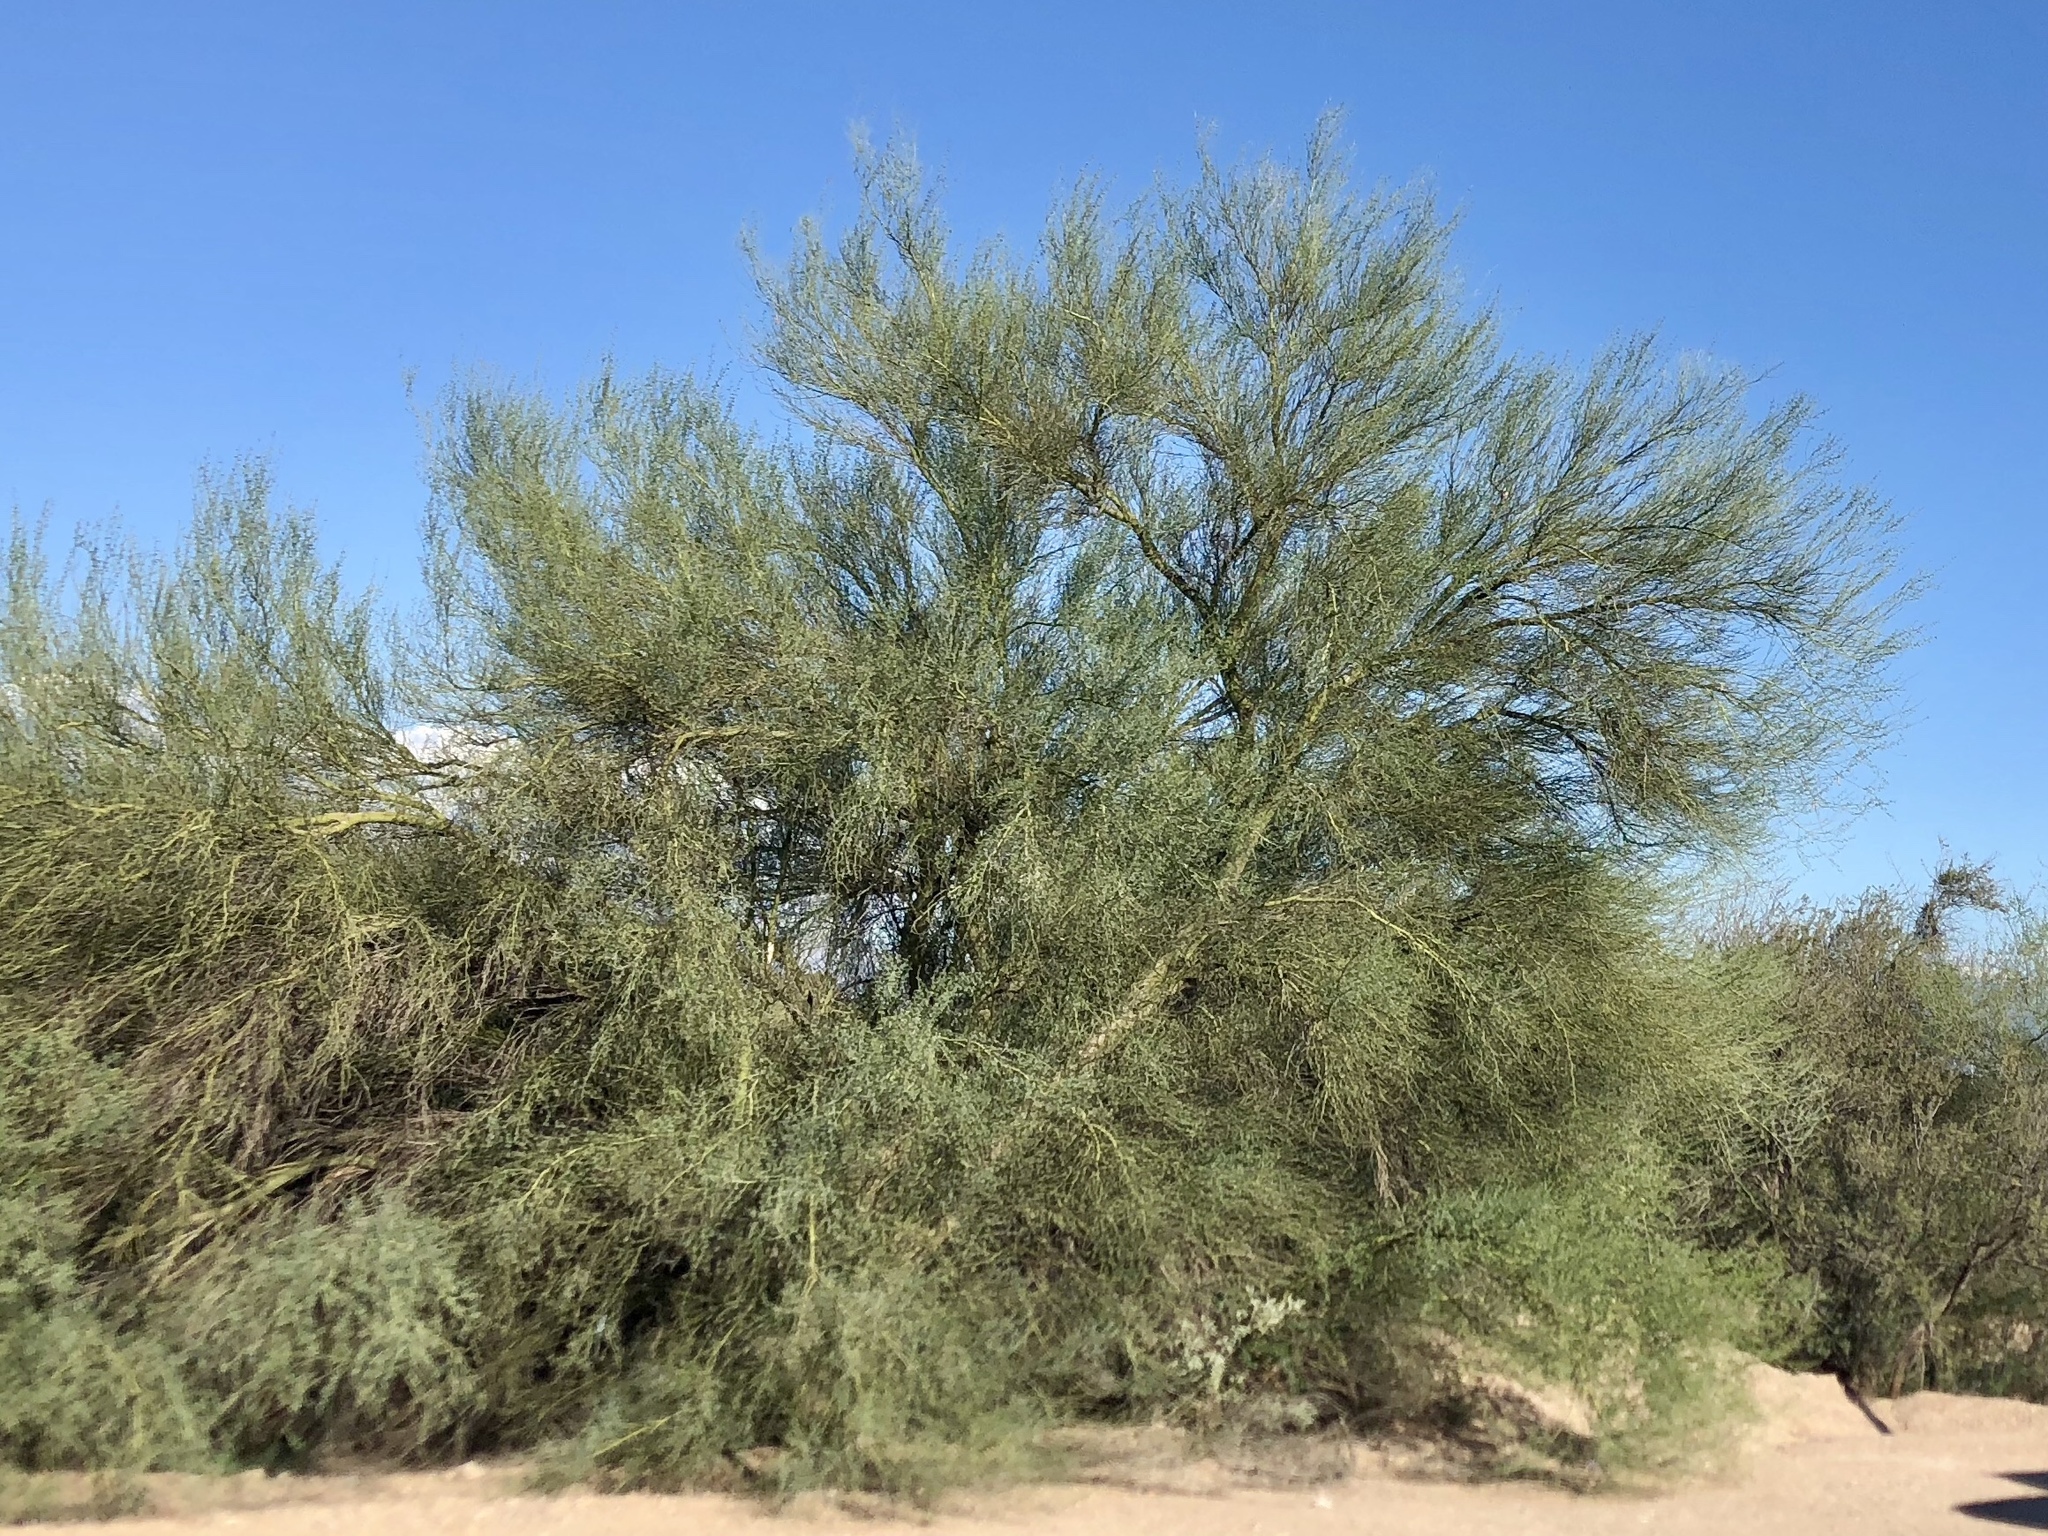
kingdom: Plantae
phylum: Tracheophyta
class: Magnoliopsida
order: Fabales
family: Fabaceae
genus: Parkinsonia
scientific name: Parkinsonia florida
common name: Blue paloverde
